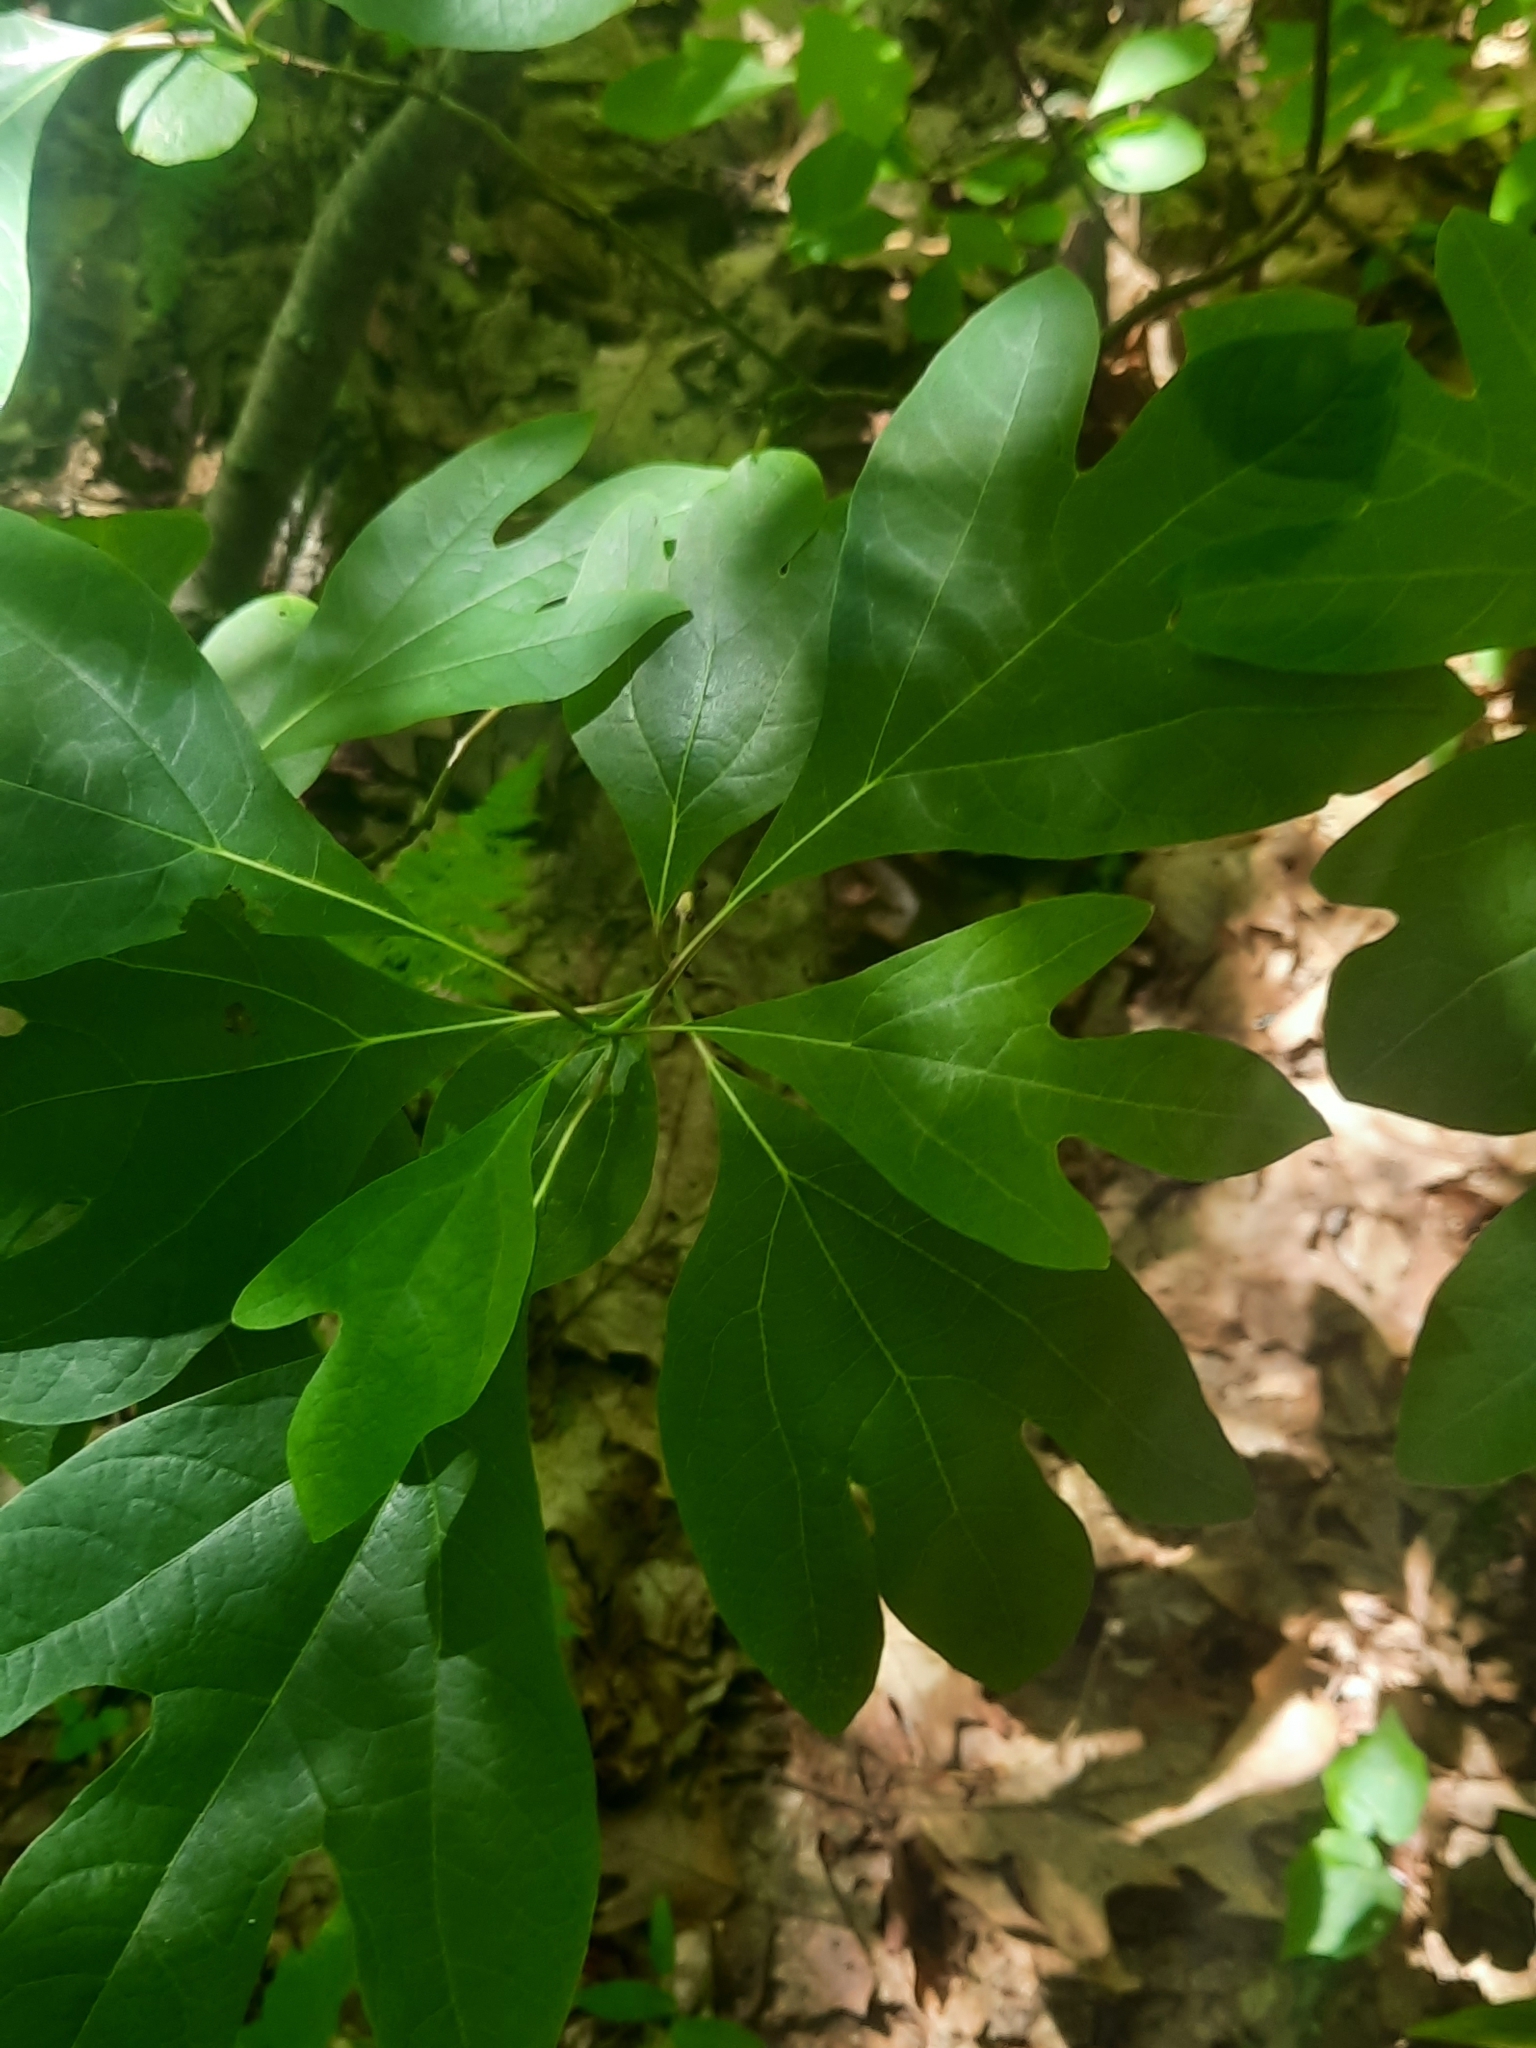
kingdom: Plantae
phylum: Tracheophyta
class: Magnoliopsida
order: Laurales
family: Lauraceae
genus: Sassafras
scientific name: Sassafras albidum
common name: Sassafras
